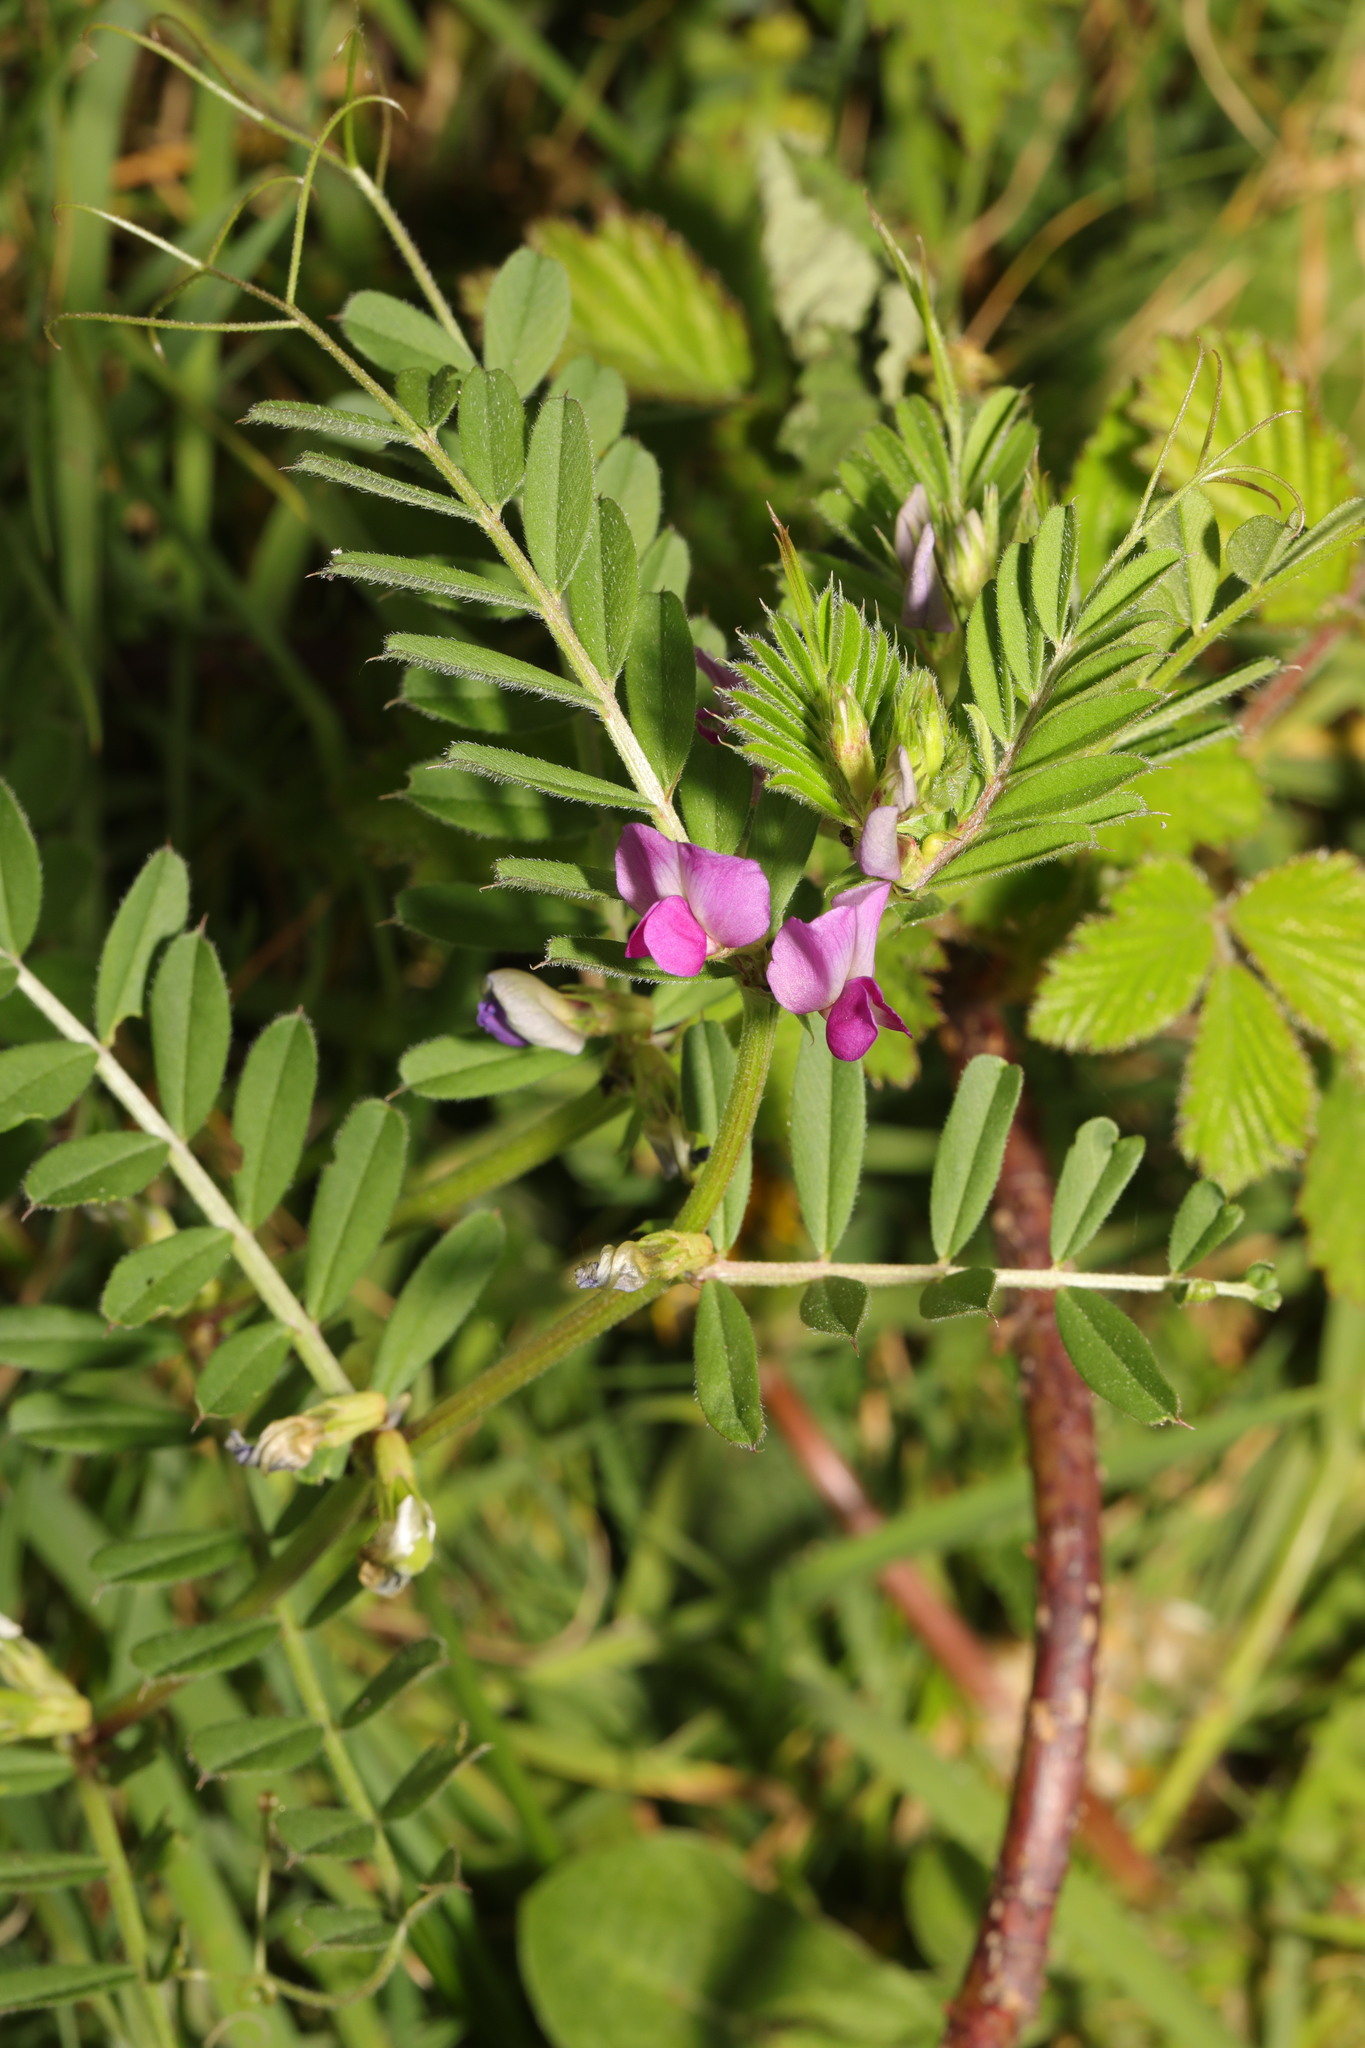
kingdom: Plantae
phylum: Tracheophyta
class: Magnoliopsida
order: Fabales
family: Fabaceae
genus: Vicia
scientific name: Vicia sativa
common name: Garden vetch
